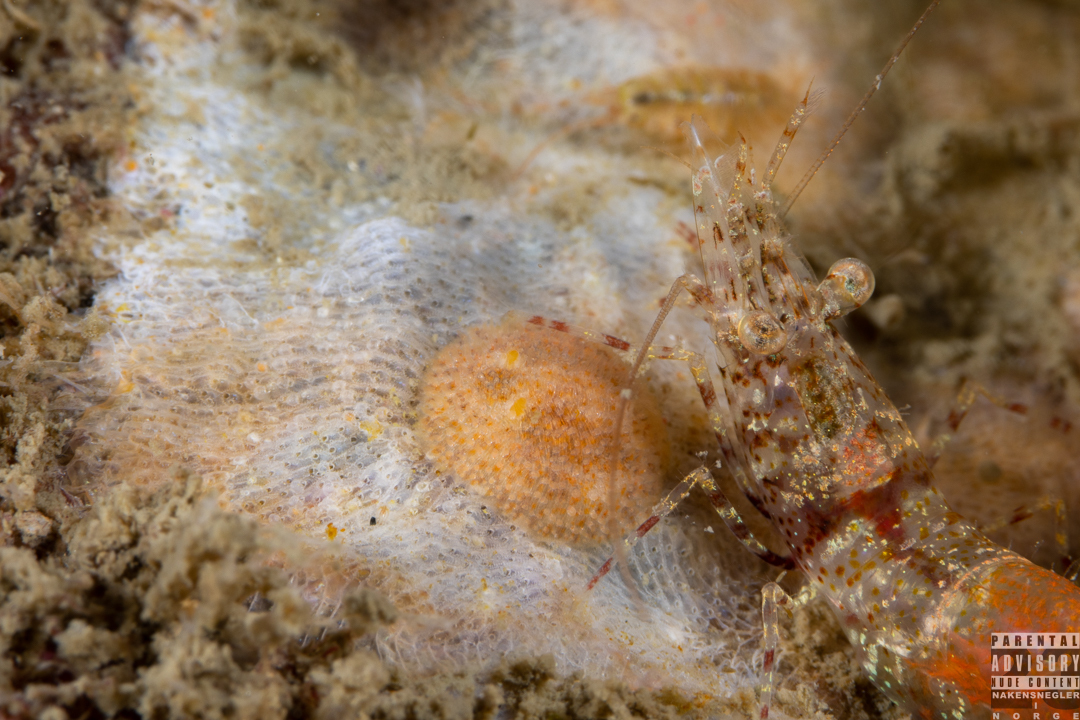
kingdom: Animalia
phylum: Mollusca
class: Gastropoda
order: Nudibranchia
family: Onchidorididae
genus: Idaliadoris
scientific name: Idaliadoris depressa
